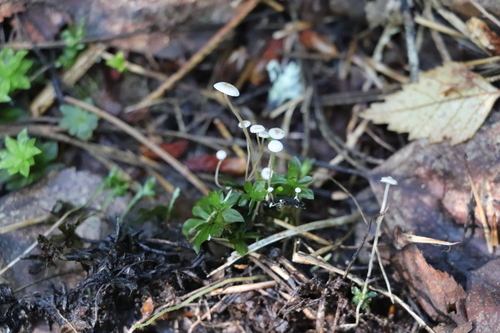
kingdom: Fungi
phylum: Basidiomycota
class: Agaricomycetes
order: Agaricales
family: Tricholomataceae
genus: Collybia
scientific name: Collybia cirrhata
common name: Piggyback shanklet
